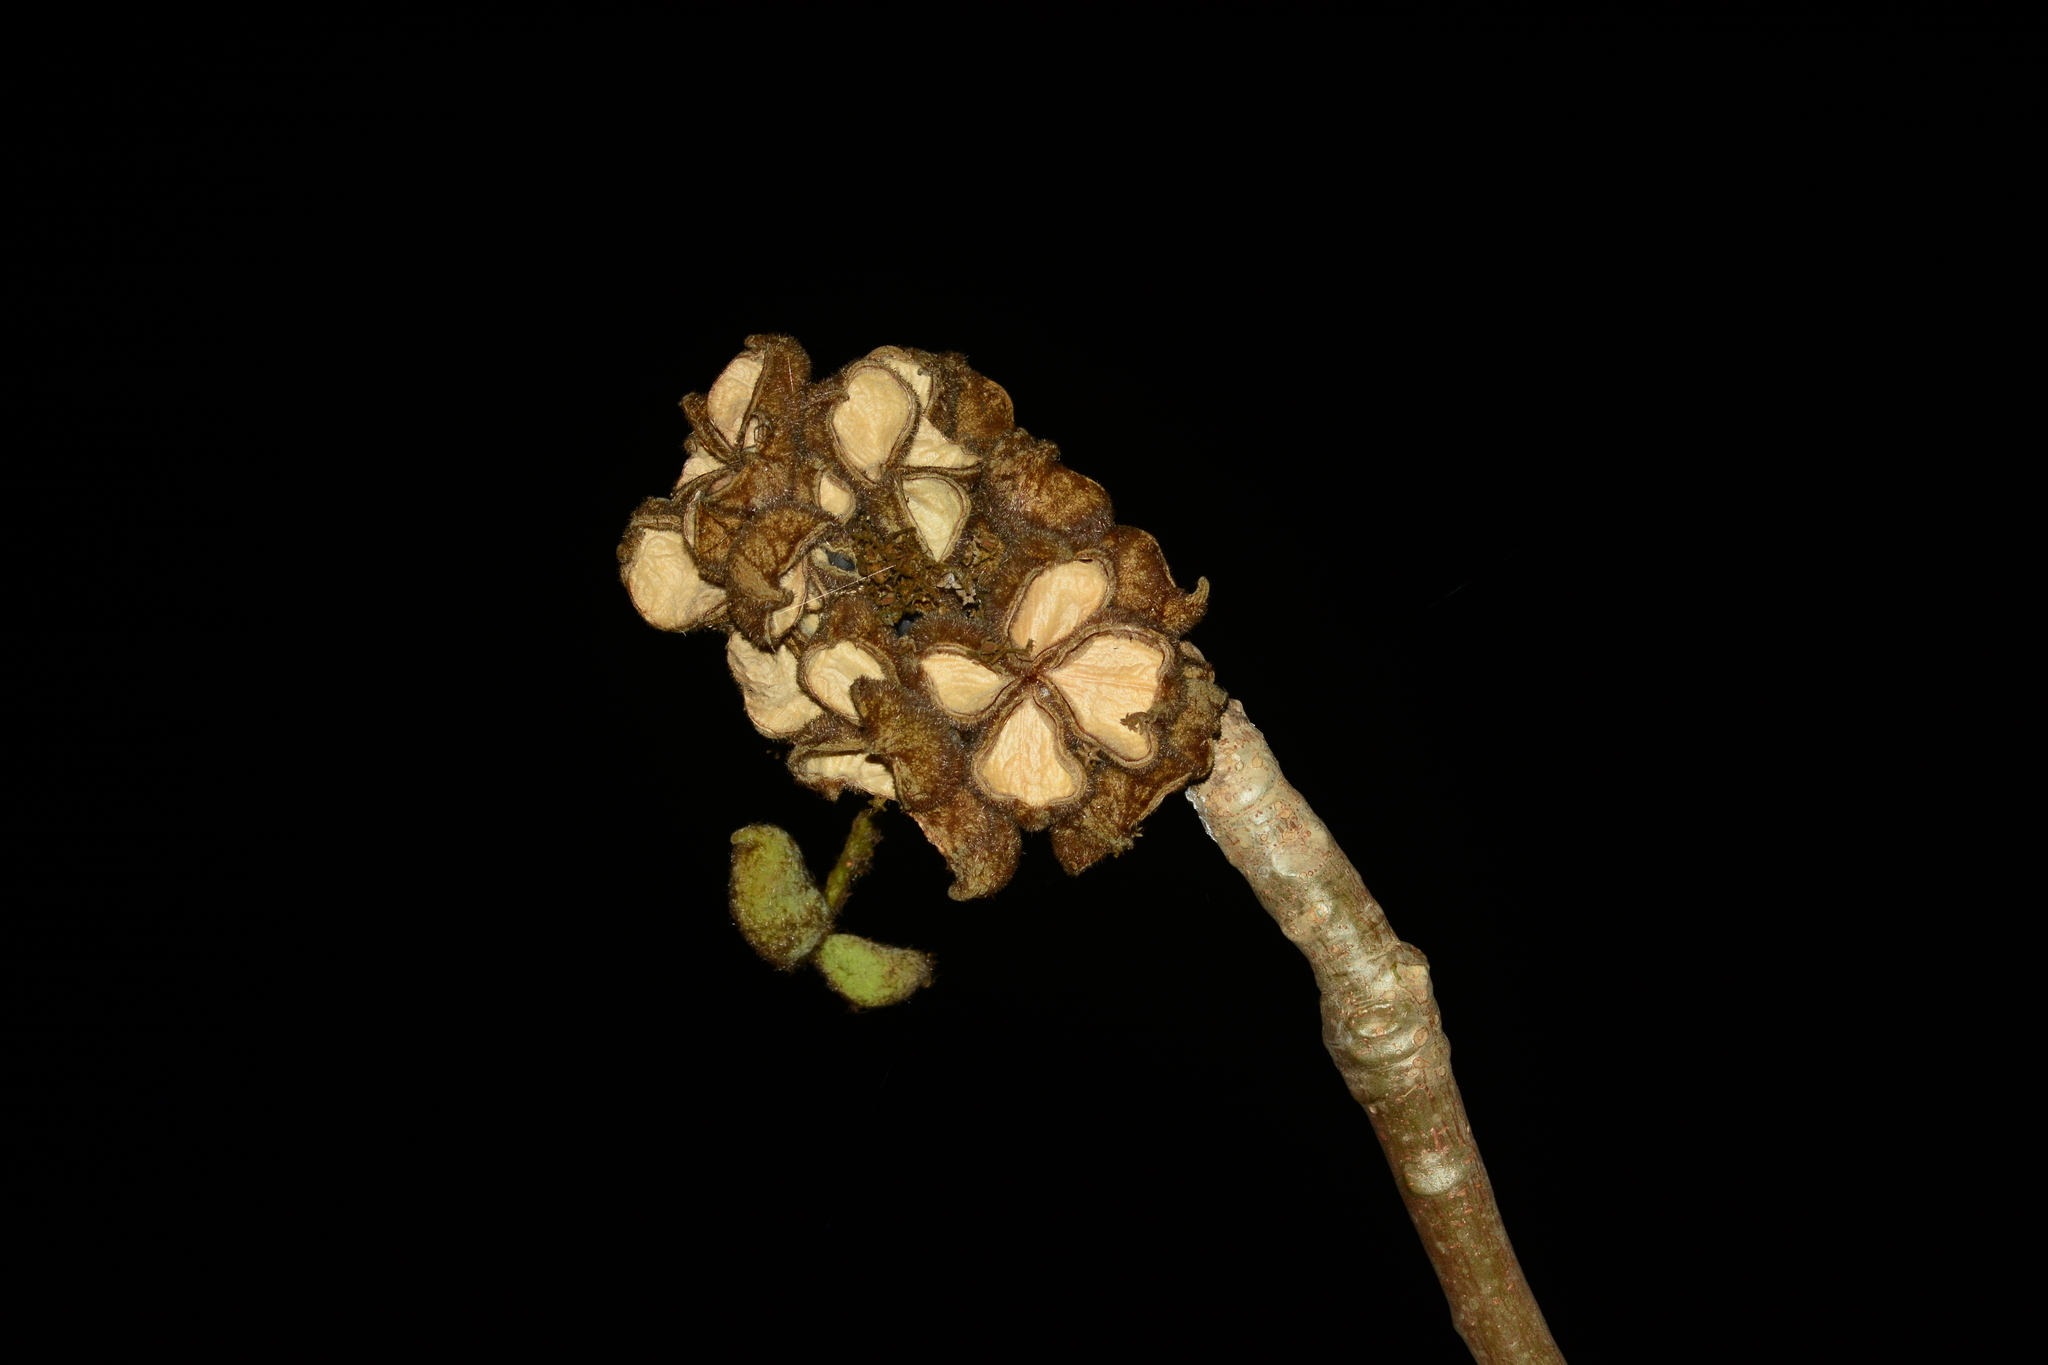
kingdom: Plantae
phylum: Tracheophyta
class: Magnoliopsida
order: Malvales
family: Malvaceae
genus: Sterculia
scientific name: Sterculia urens
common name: Indian-tragacanth
